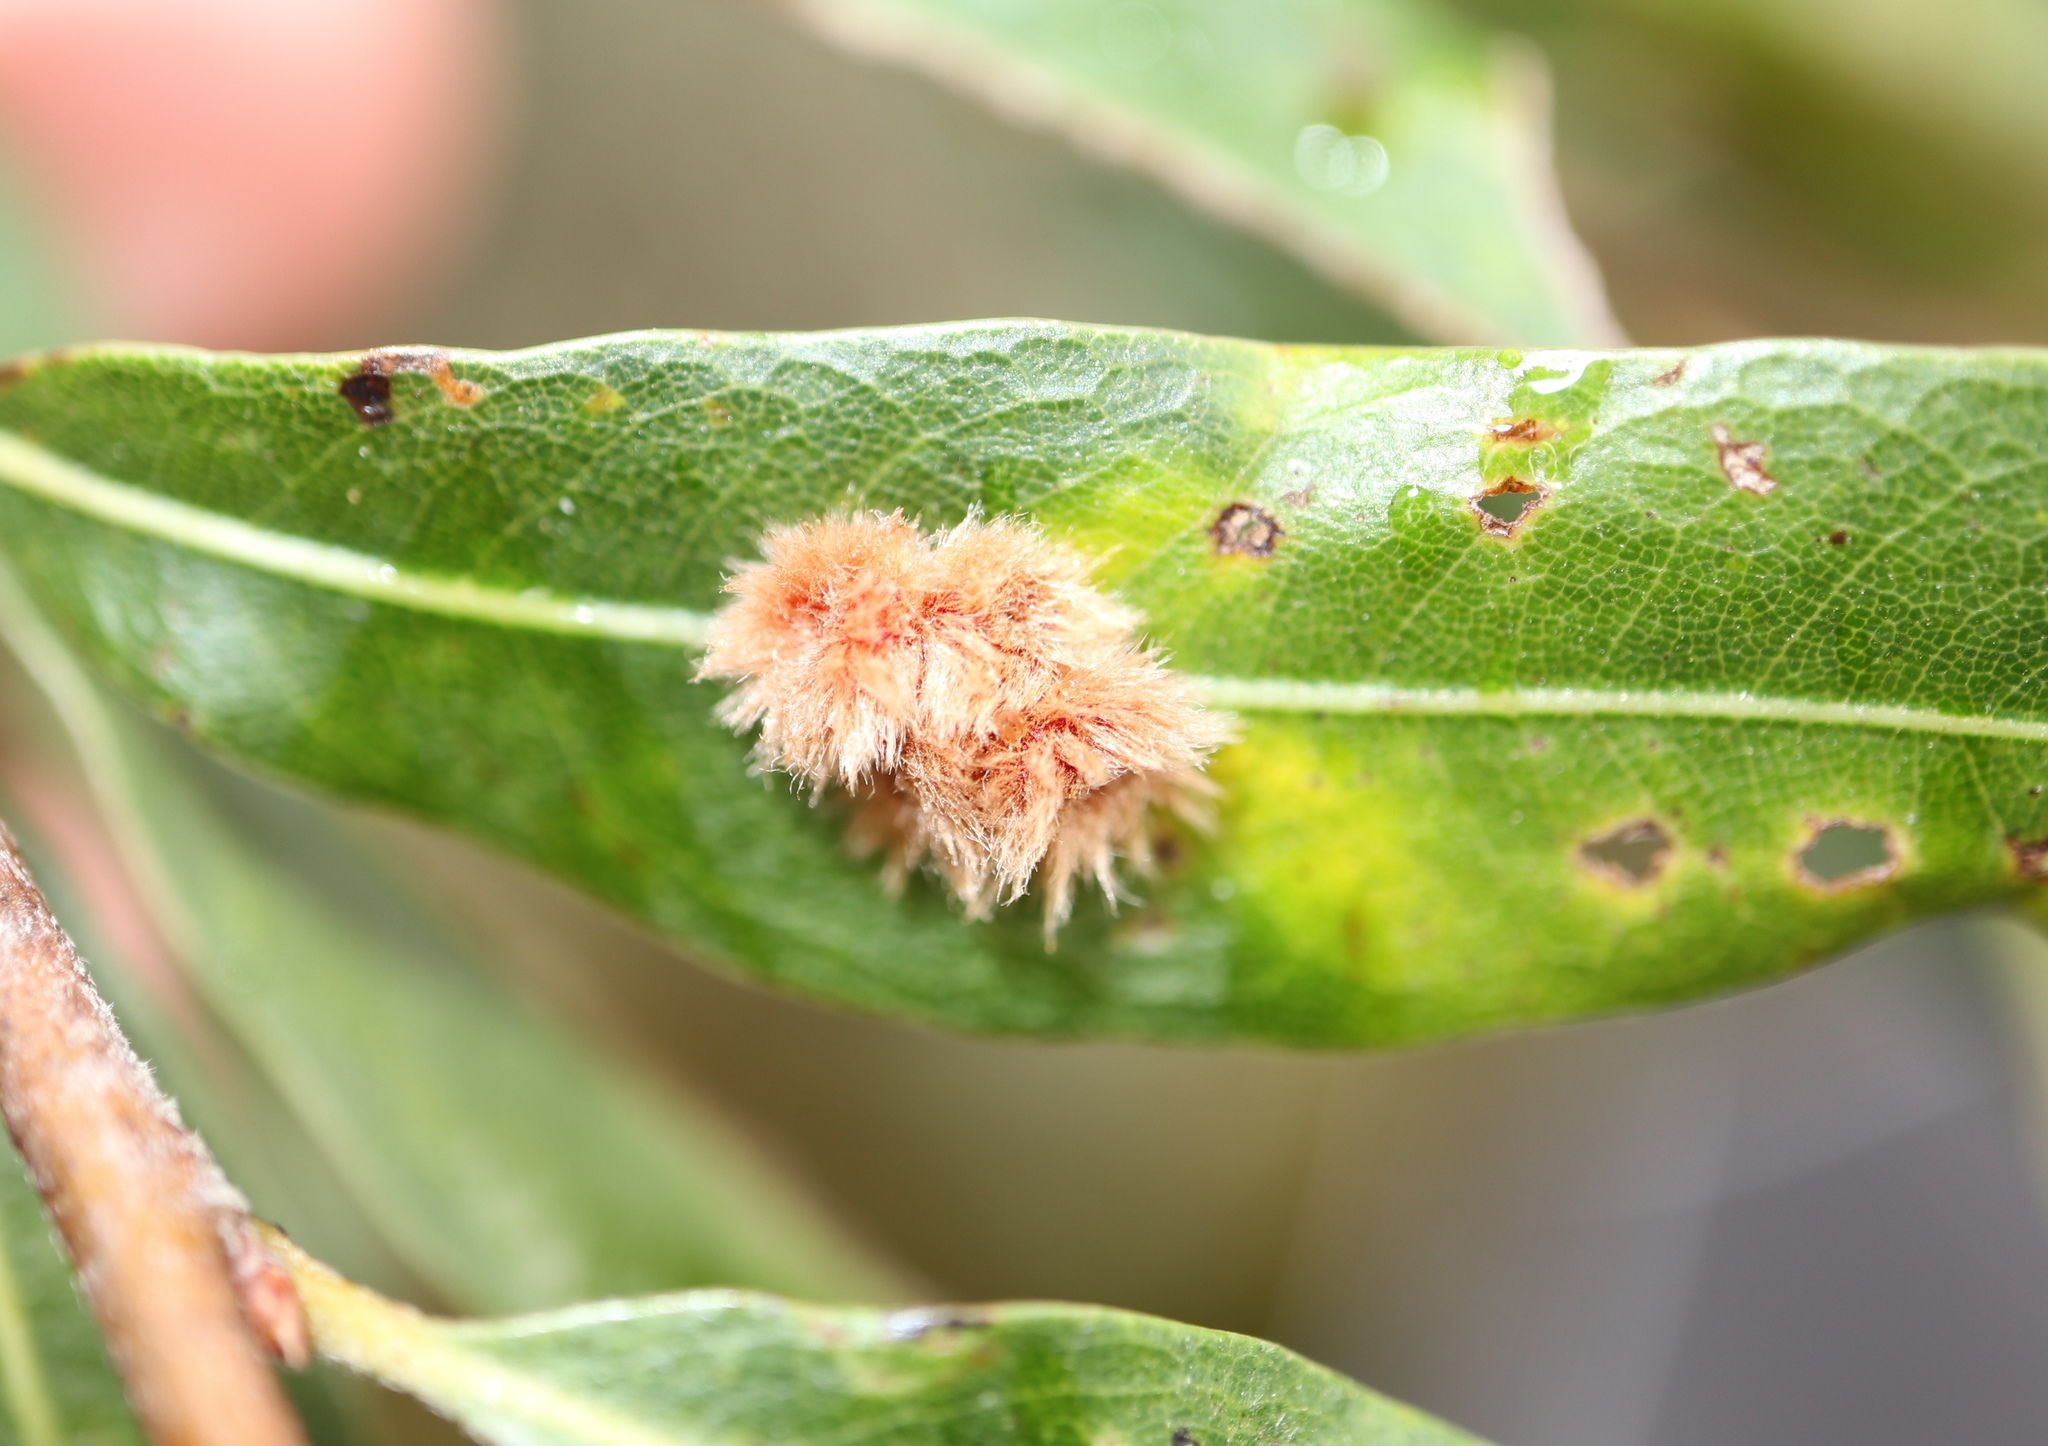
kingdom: Animalia
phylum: Arthropoda
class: Insecta
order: Hymenoptera
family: Cynipidae
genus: Callirhytis
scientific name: Callirhytis
